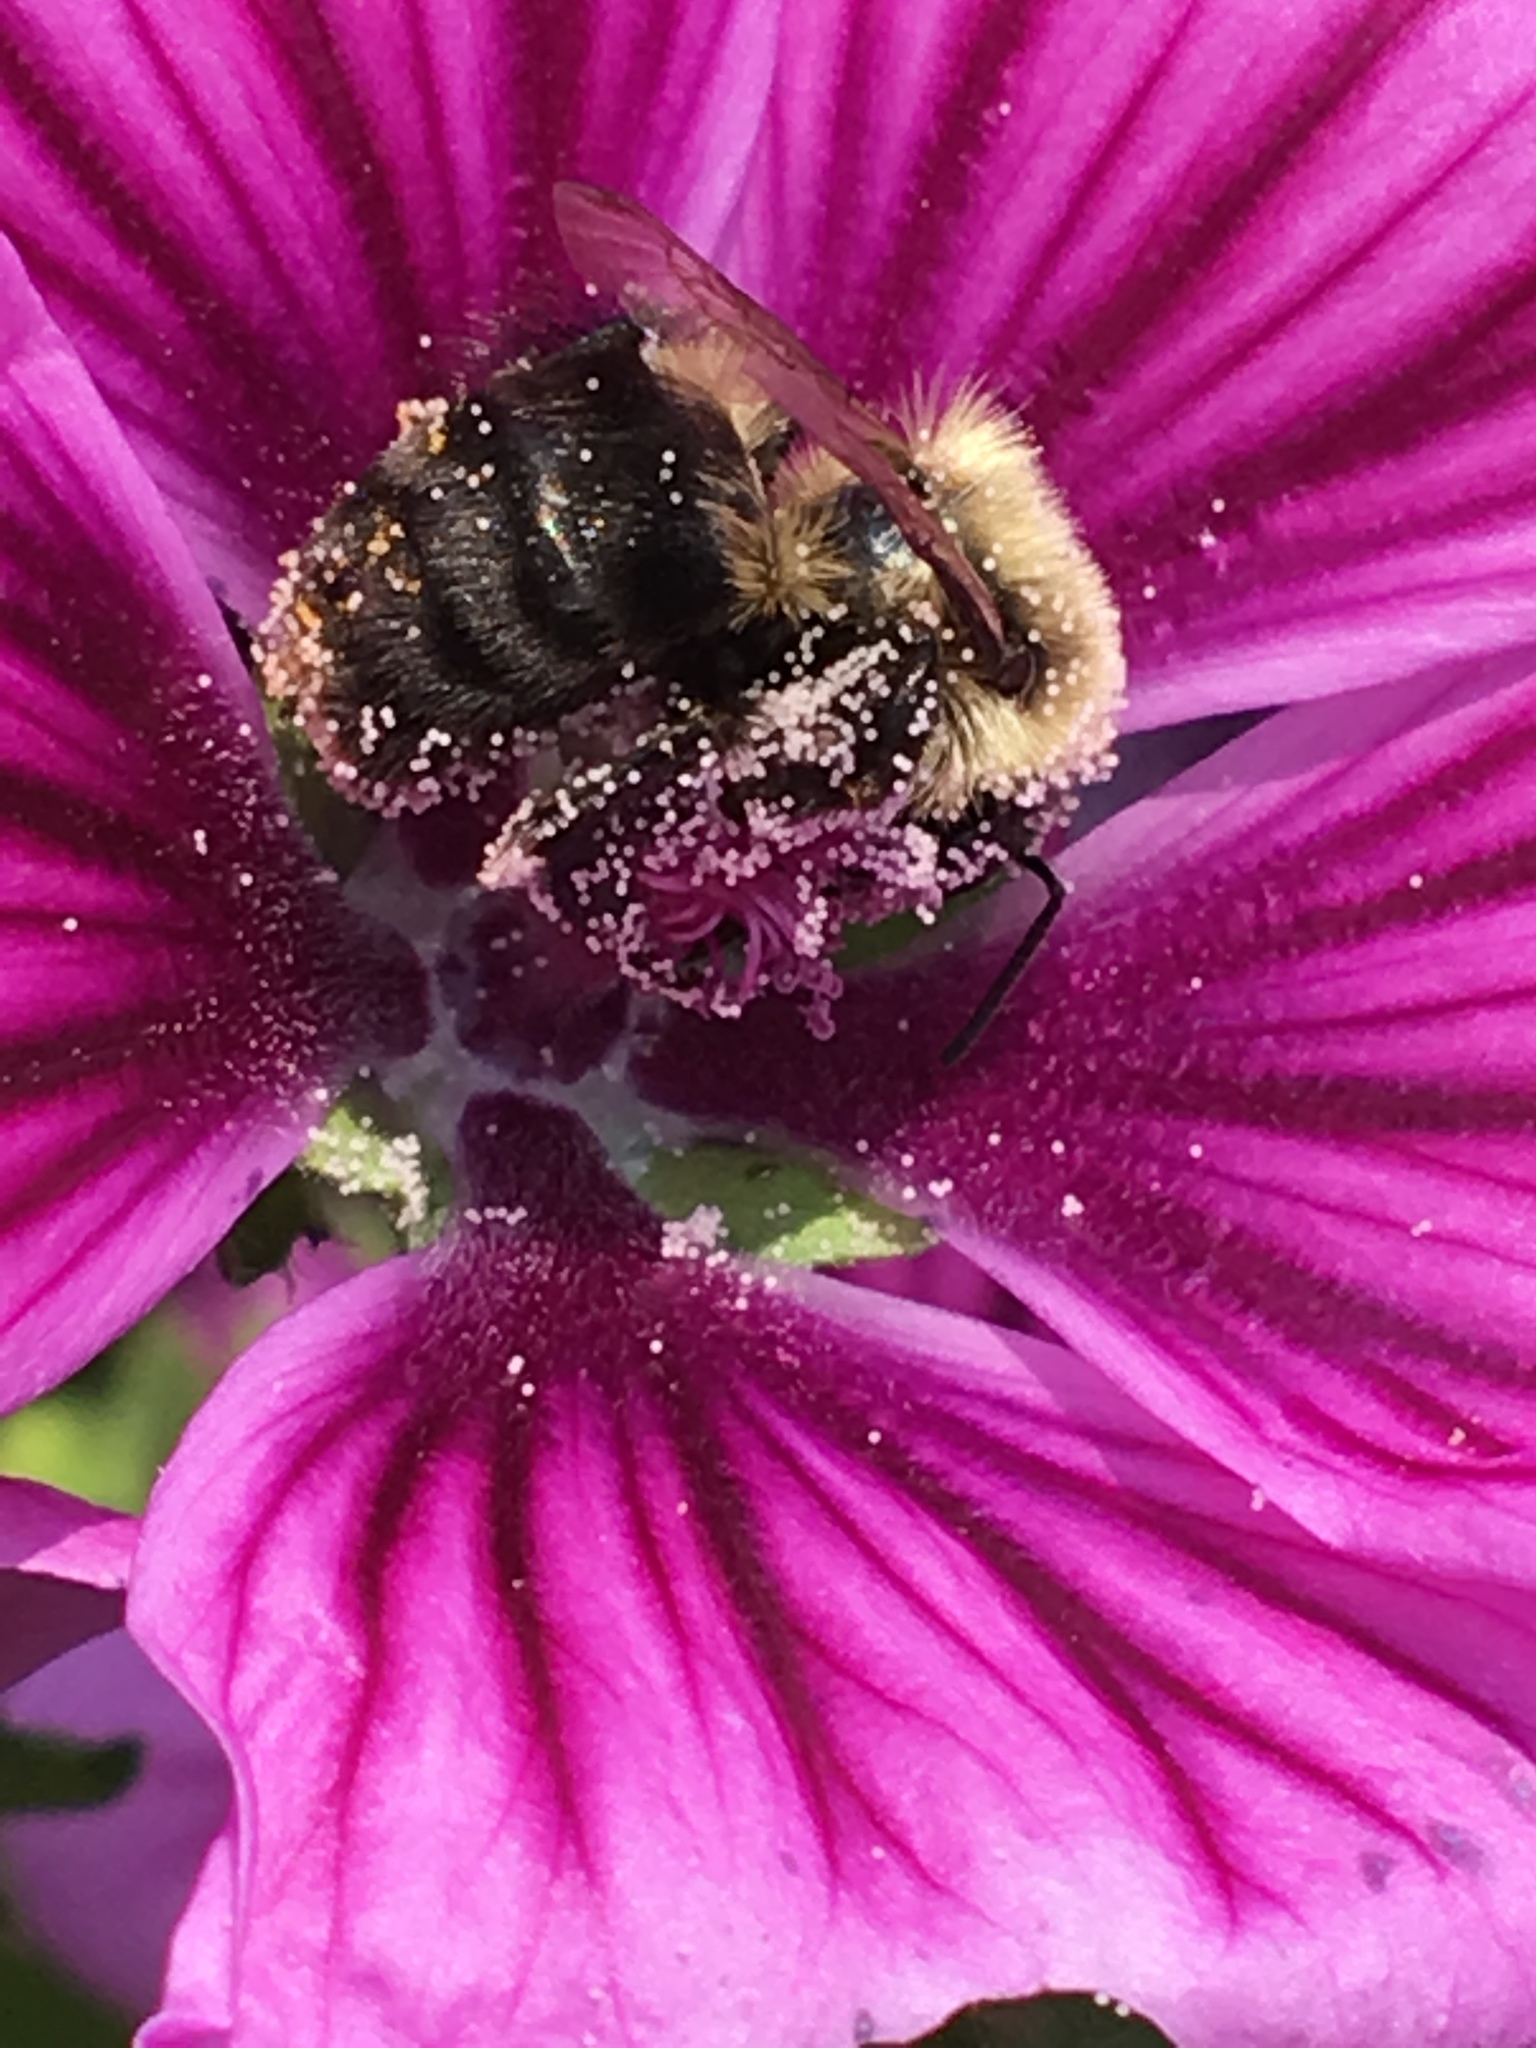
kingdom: Animalia
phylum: Arthropoda
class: Insecta
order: Hymenoptera
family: Apidae
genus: Bombus
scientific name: Bombus impatiens
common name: Common eastern bumble bee
